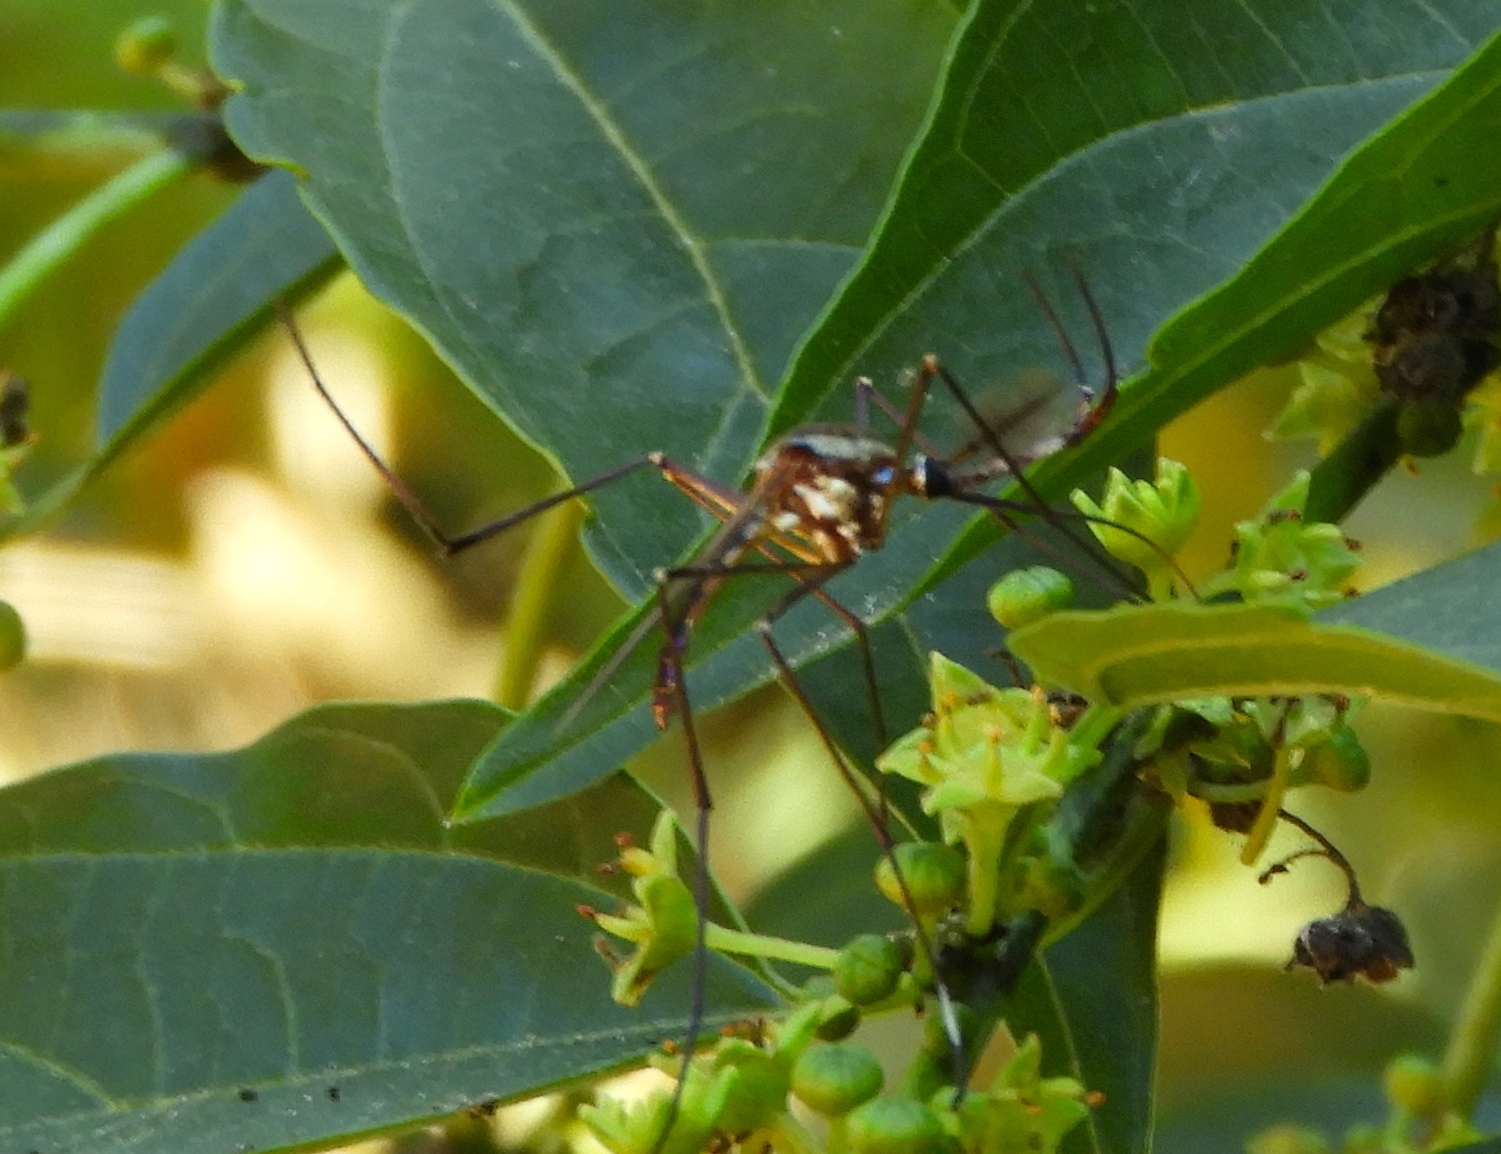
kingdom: Animalia
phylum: Arthropoda
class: Insecta
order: Diptera
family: Culicidae
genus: Toxorhynchites
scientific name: Toxorhynchites
